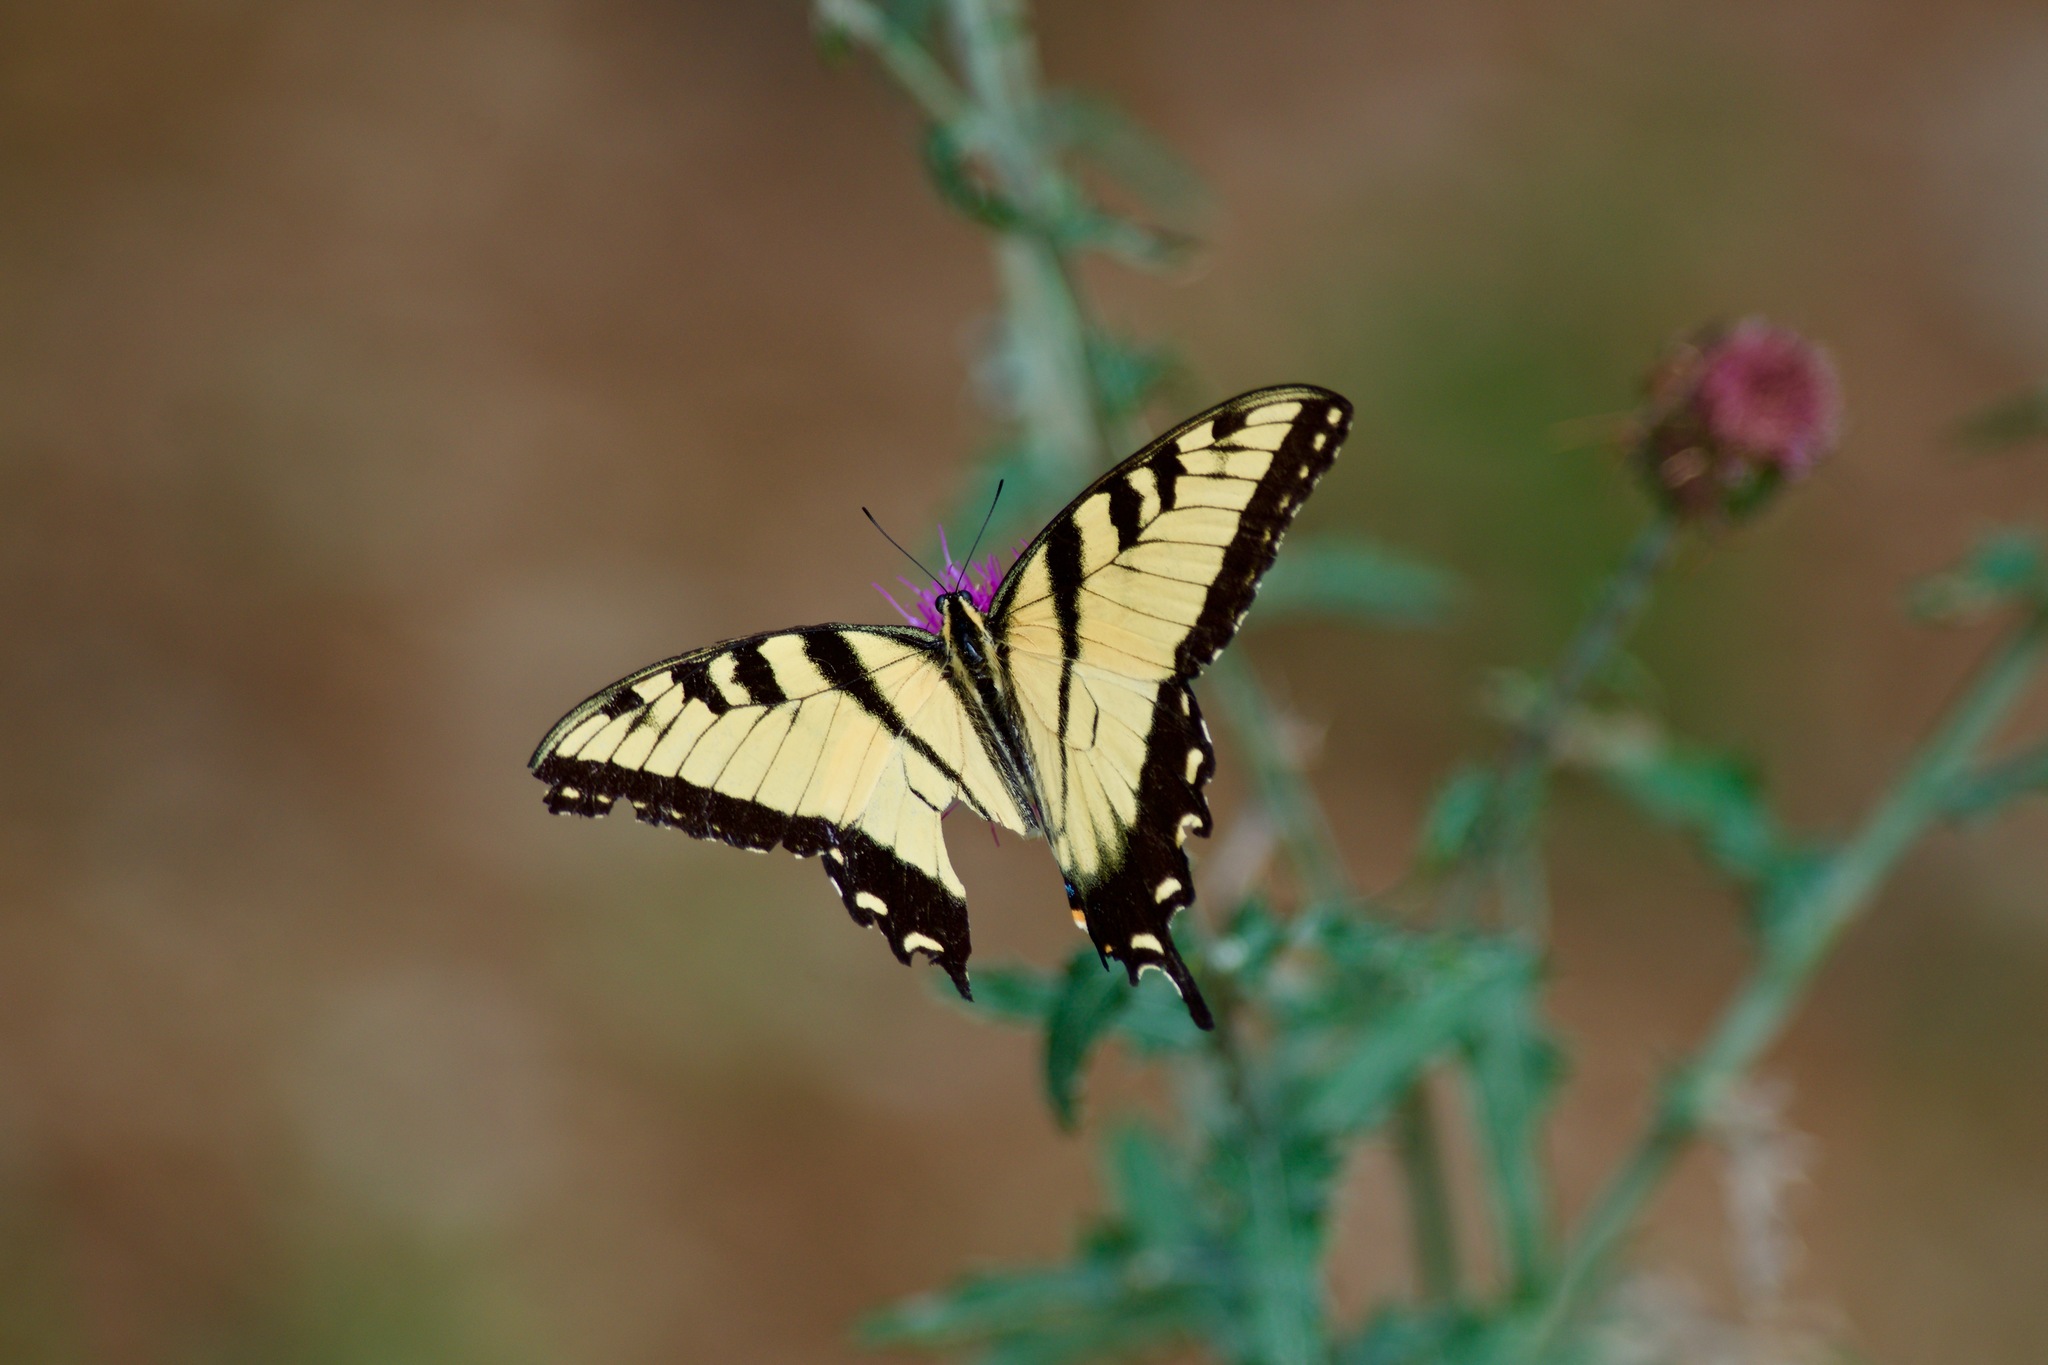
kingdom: Animalia
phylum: Arthropoda
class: Insecta
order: Lepidoptera
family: Papilionidae
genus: Papilio
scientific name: Papilio glaucus
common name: Tiger swallowtail
